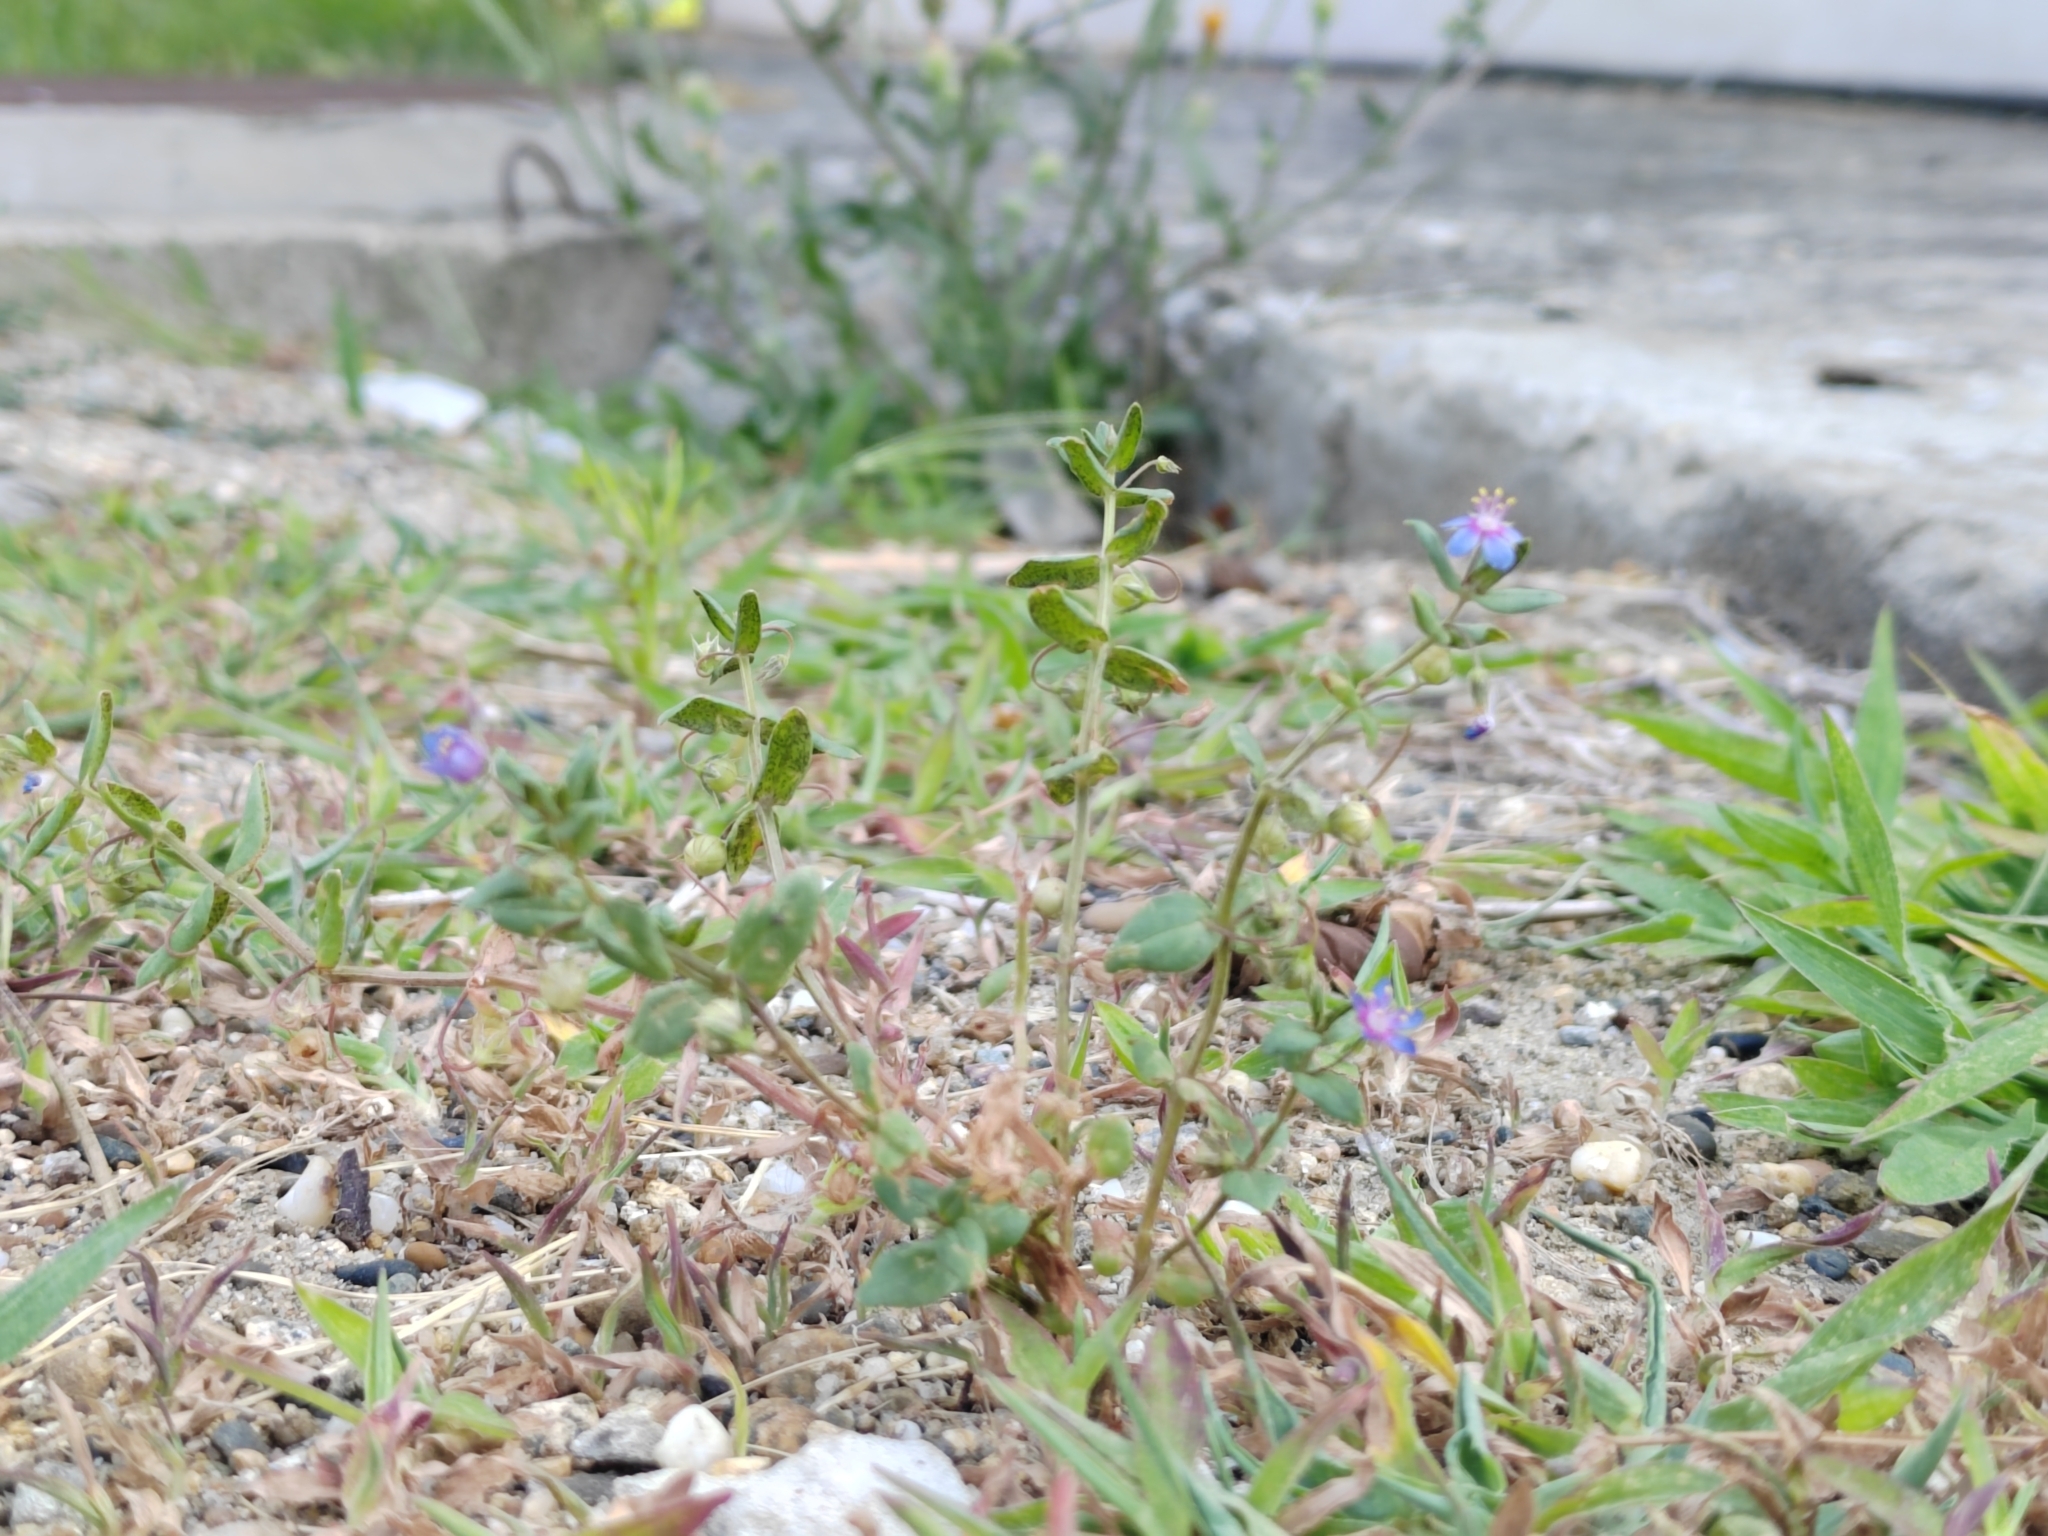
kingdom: Plantae
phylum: Tracheophyta
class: Magnoliopsida
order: Ericales
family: Primulaceae
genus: Lysimachia
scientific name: Lysimachia foemina
